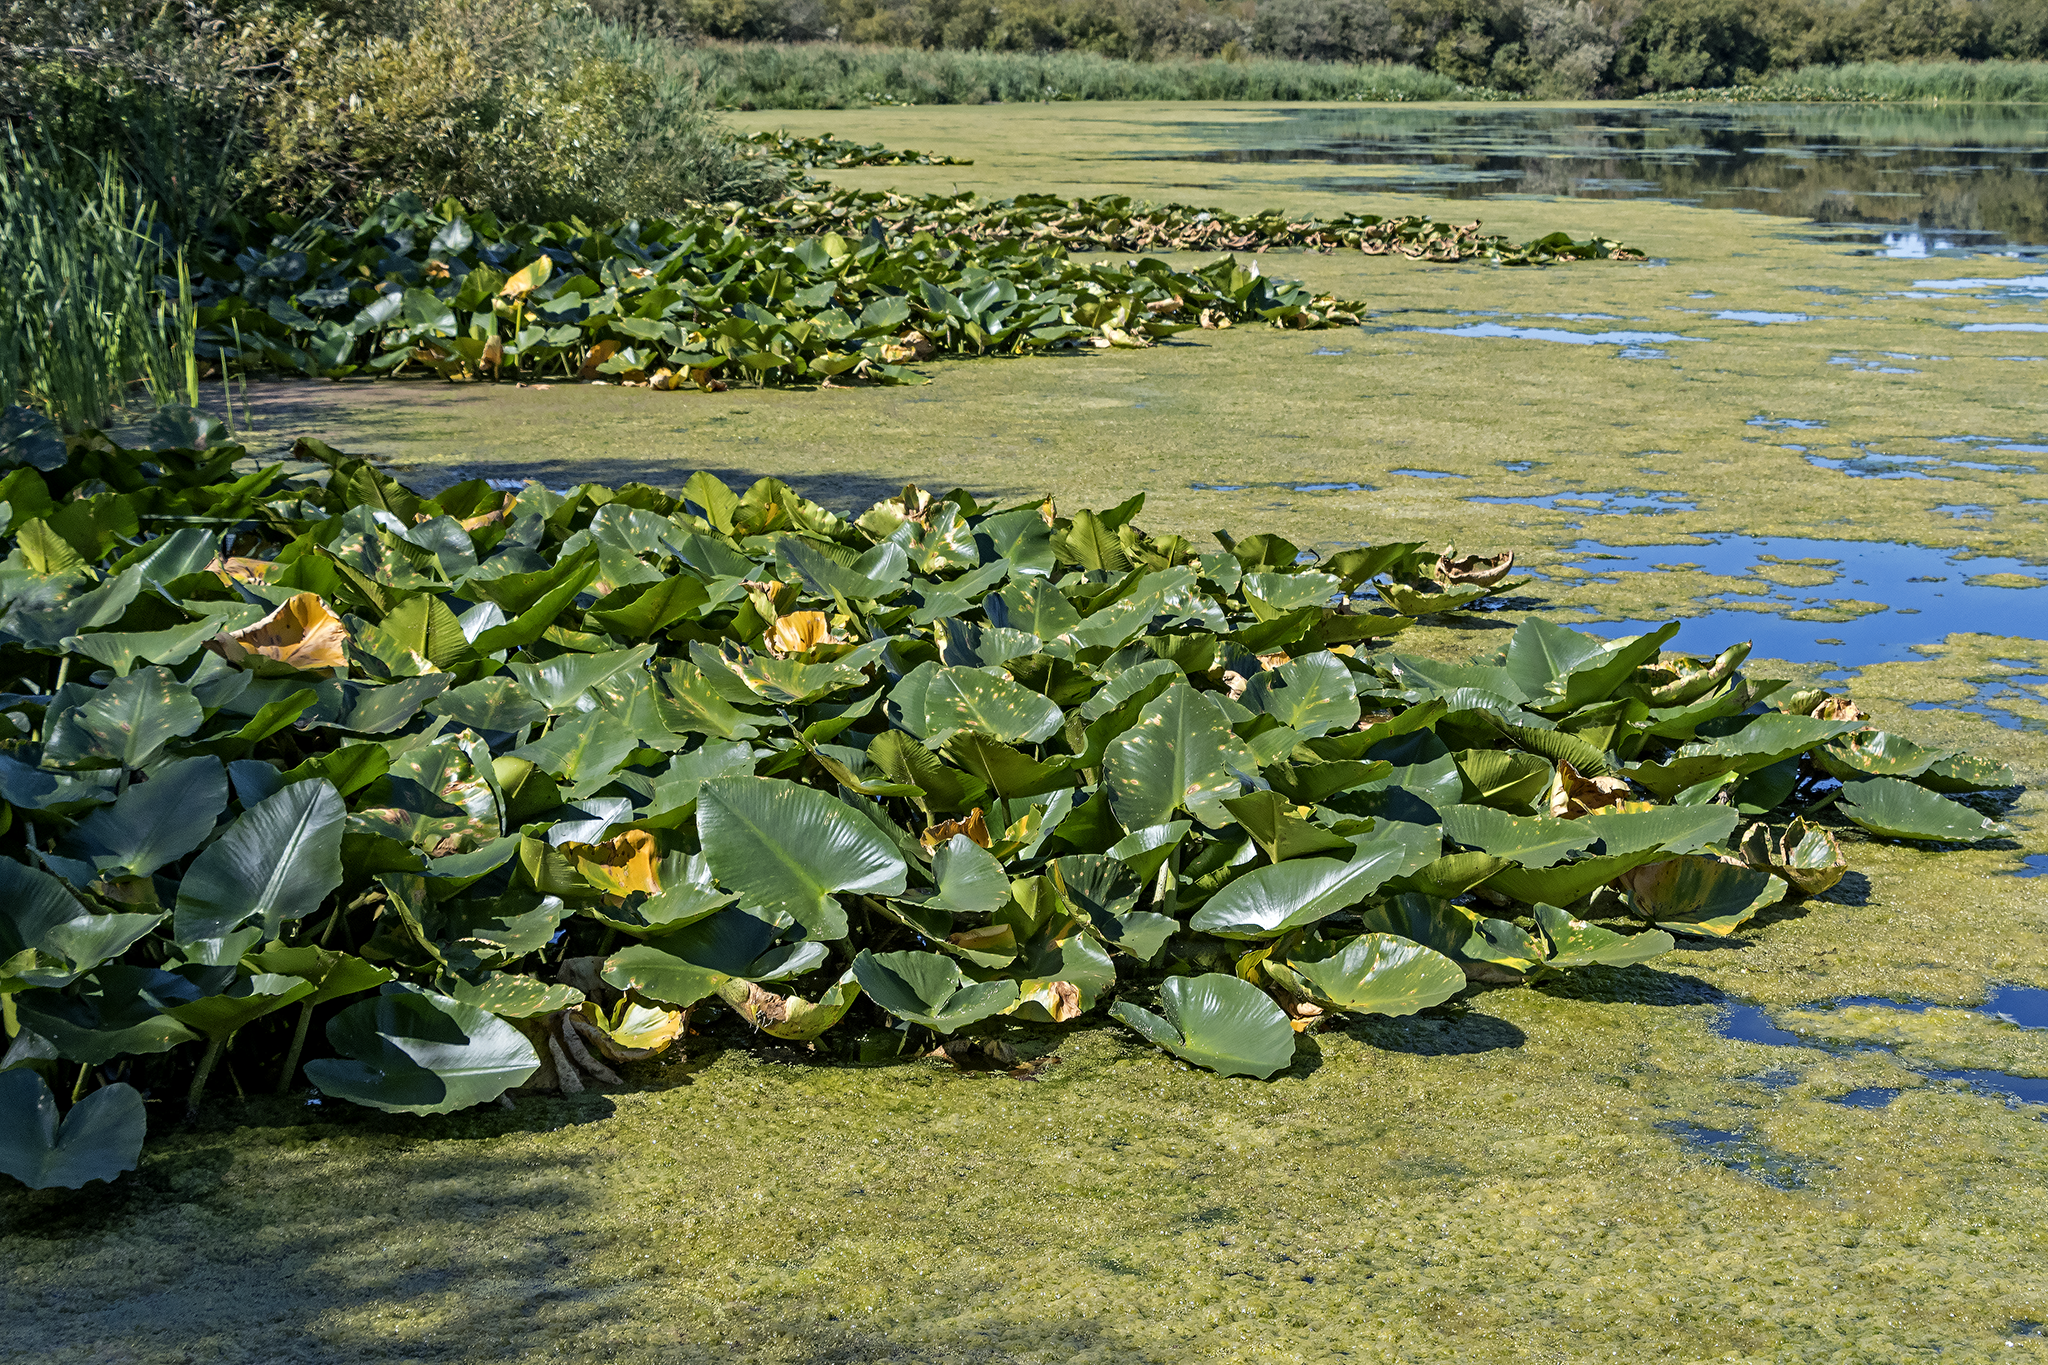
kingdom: Plantae
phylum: Tracheophyta
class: Magnoliopsida
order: Nymphaeales
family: Nymphaeaceae
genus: Nuphar
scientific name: Nuphar polysepala
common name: Rocky mountain cow-lily
